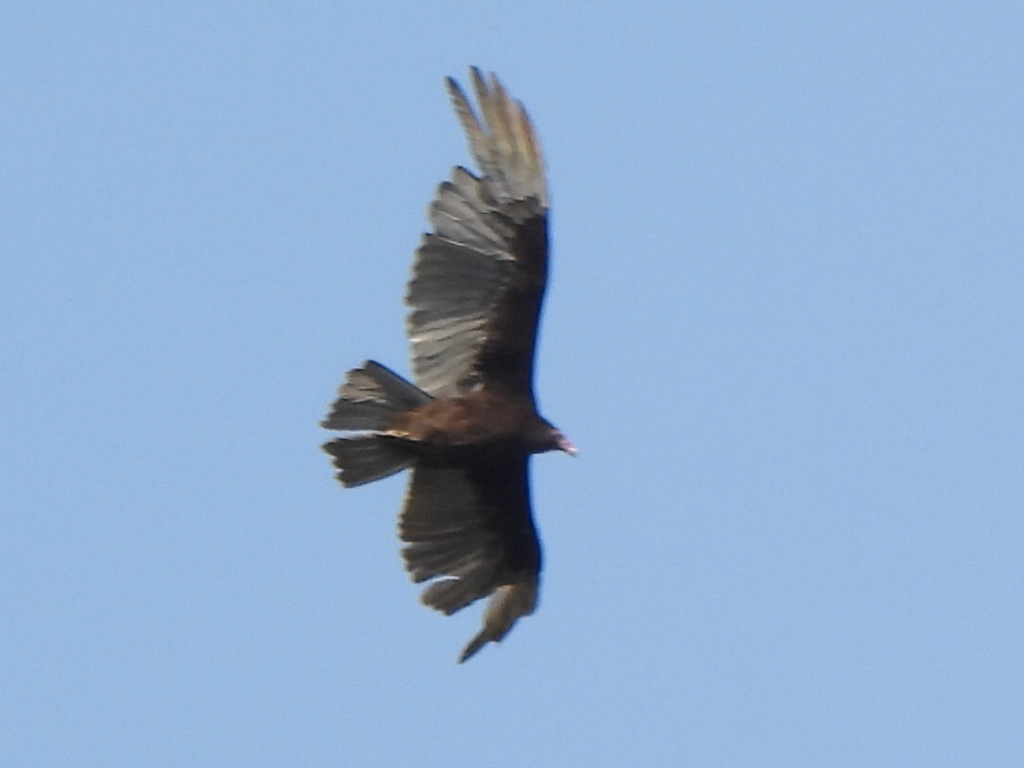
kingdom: Animalia
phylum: Chordata
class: Aves
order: Accipitriformes
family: Cathartidae
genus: Cathartes
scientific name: Cathartes aura
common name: Turkey vulture
